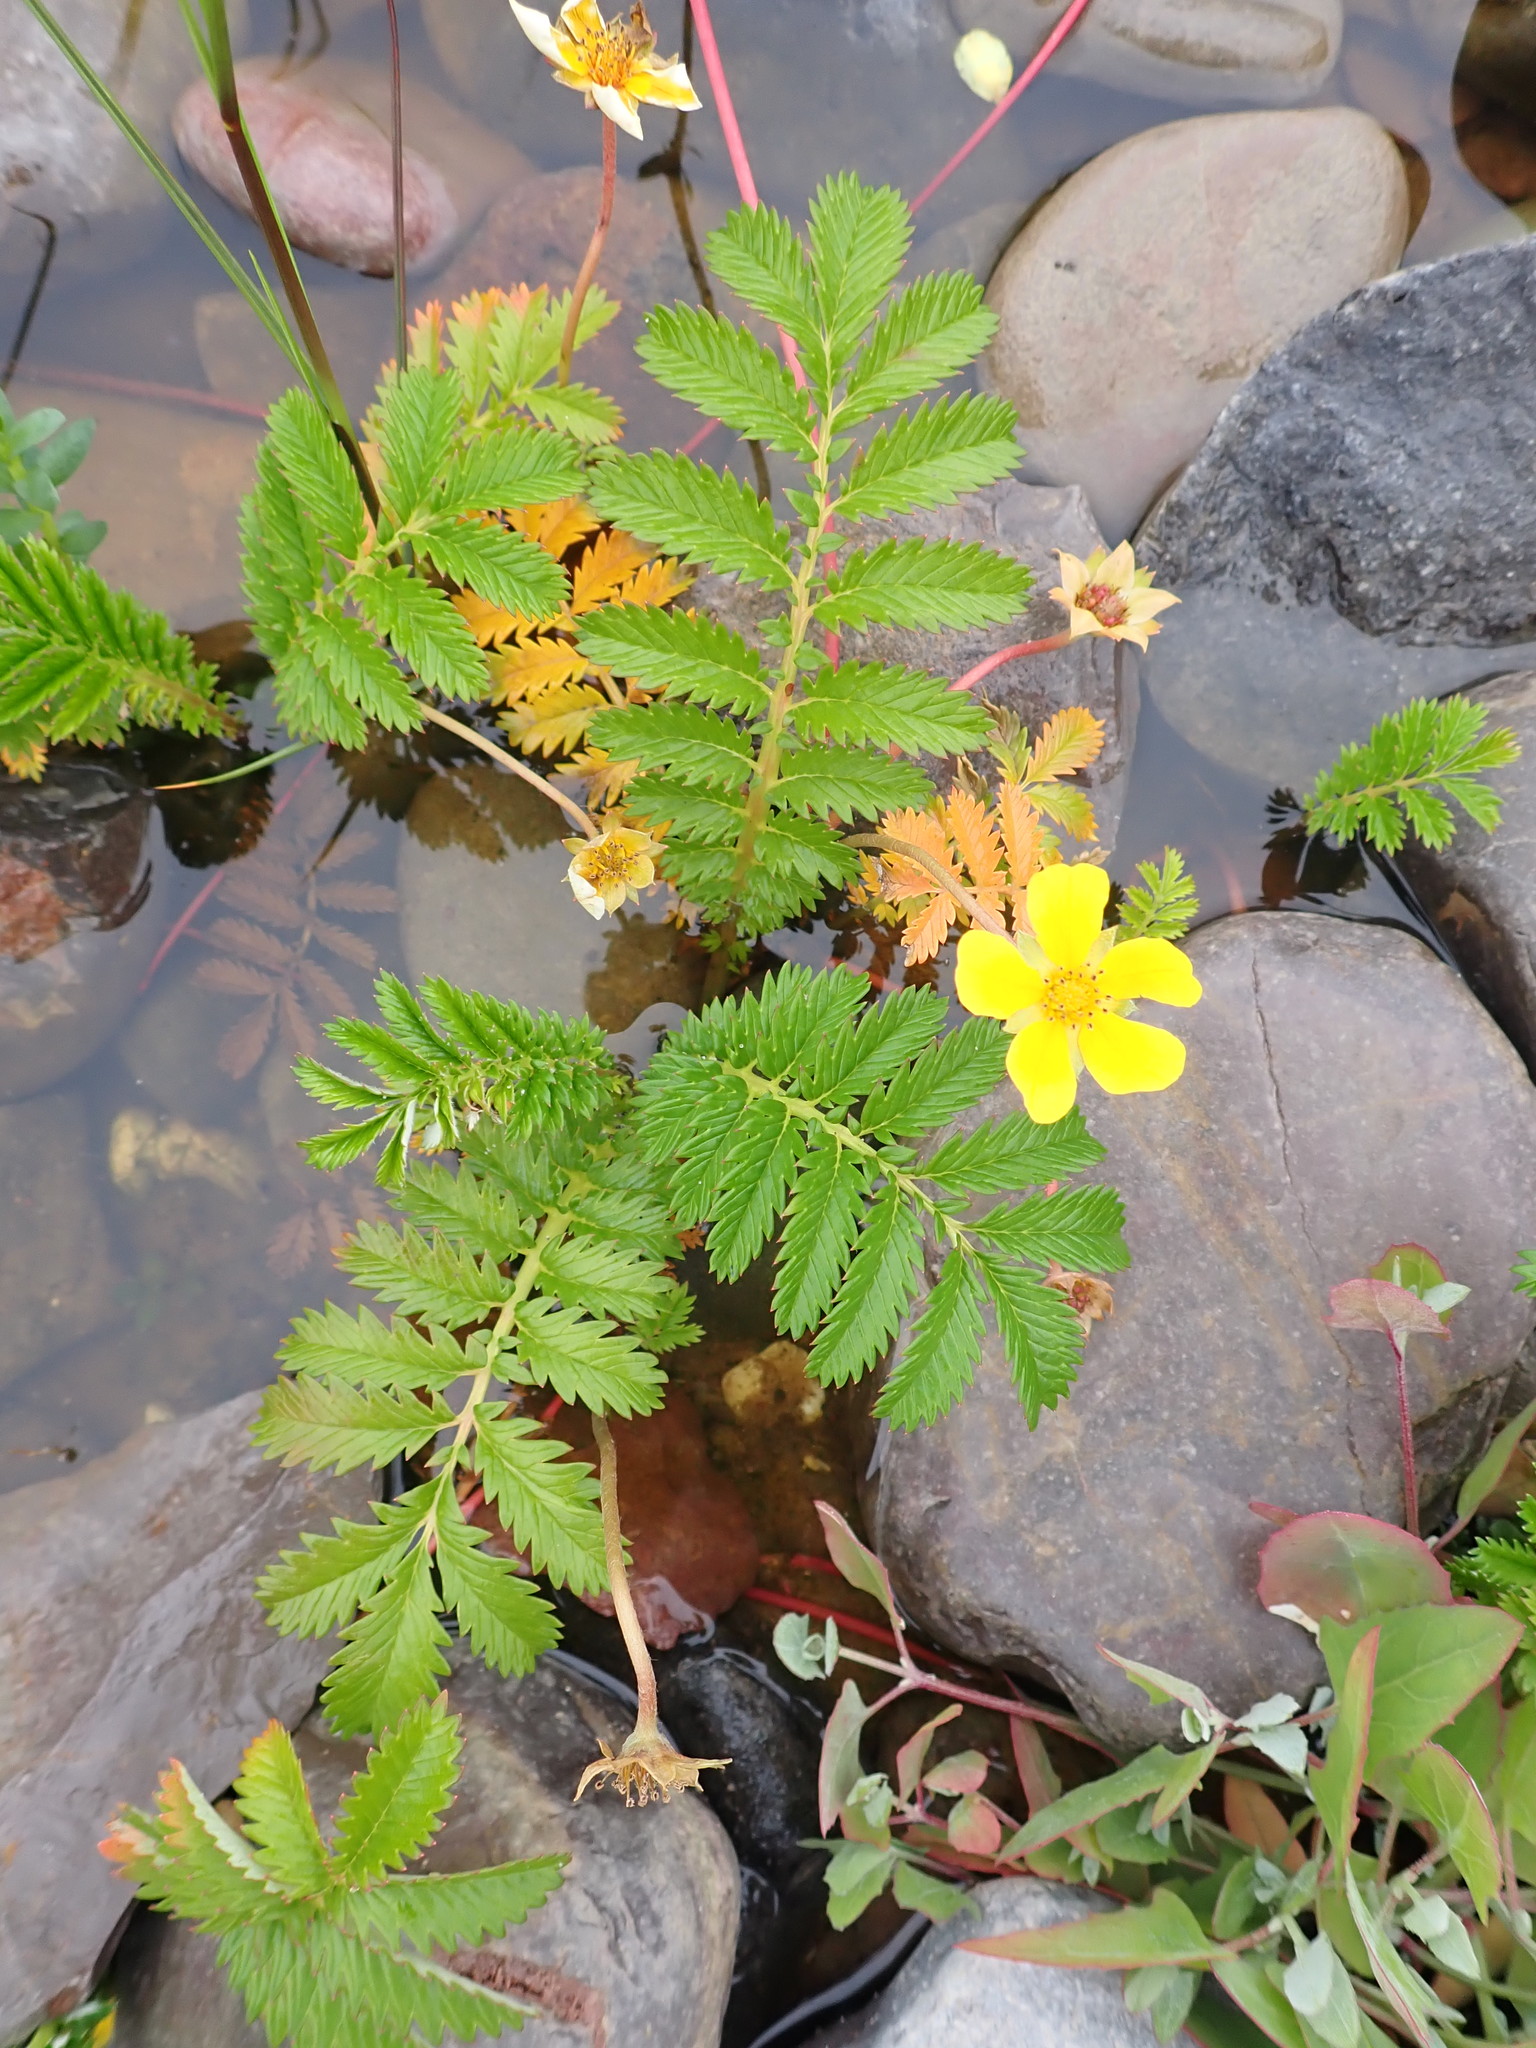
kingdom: Plantae
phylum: Tracheophyta
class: Magnoliopsida
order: Rosales
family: Rosaceae
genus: Argentina
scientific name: Argentina anserina
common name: Common silverweed
